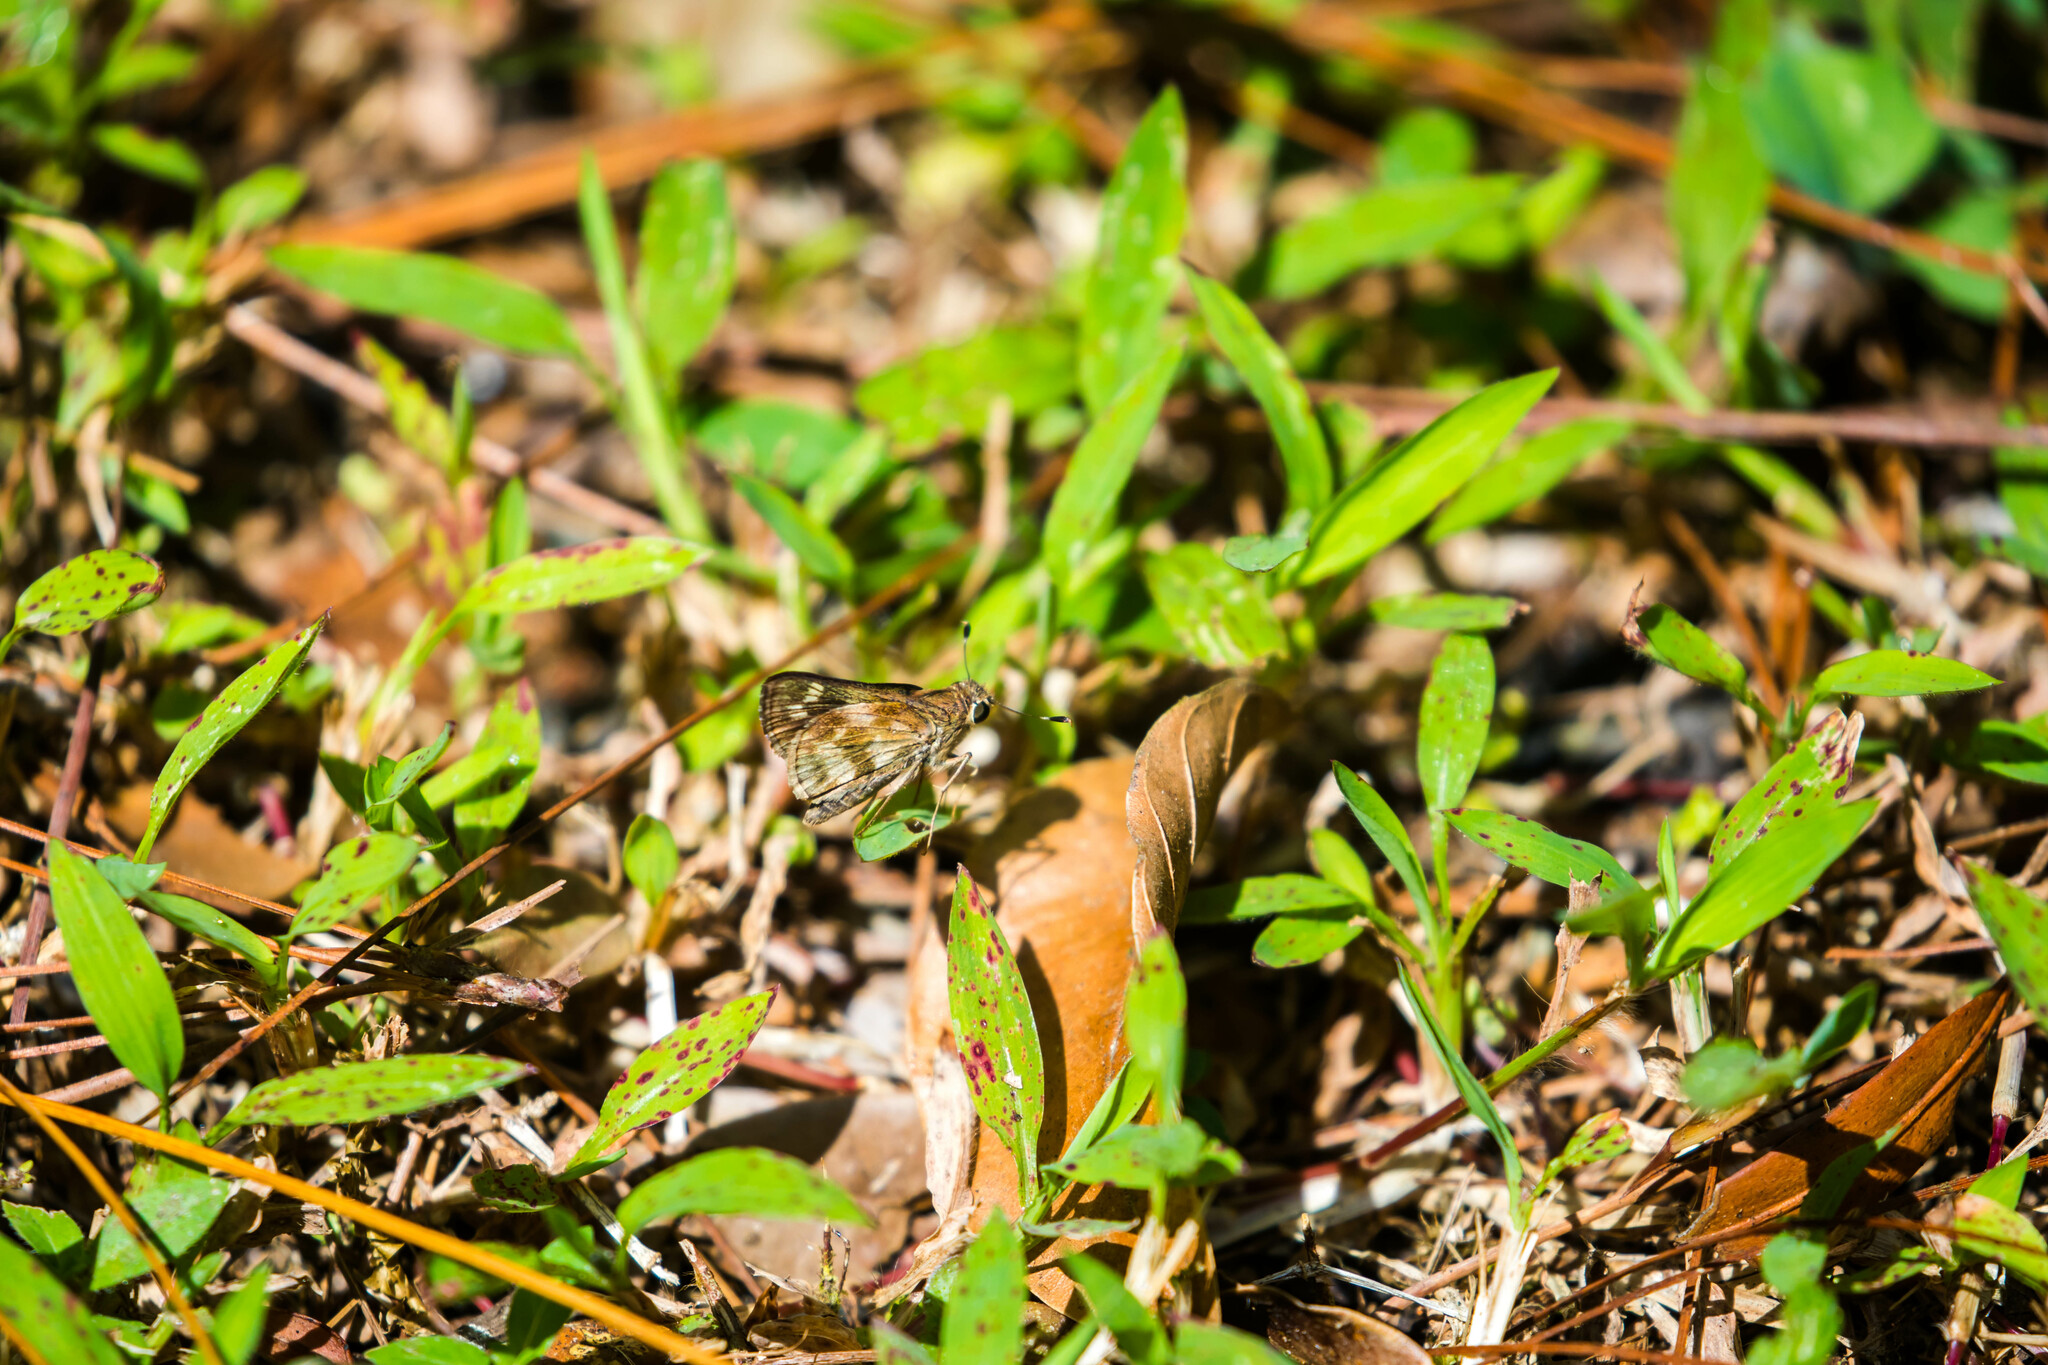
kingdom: Animalia
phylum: Arthropoda
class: Insecta
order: Lepidoptera
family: Hesperiidae
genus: Pompeius
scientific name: Pompeius pompeius
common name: Pompeius skipper
